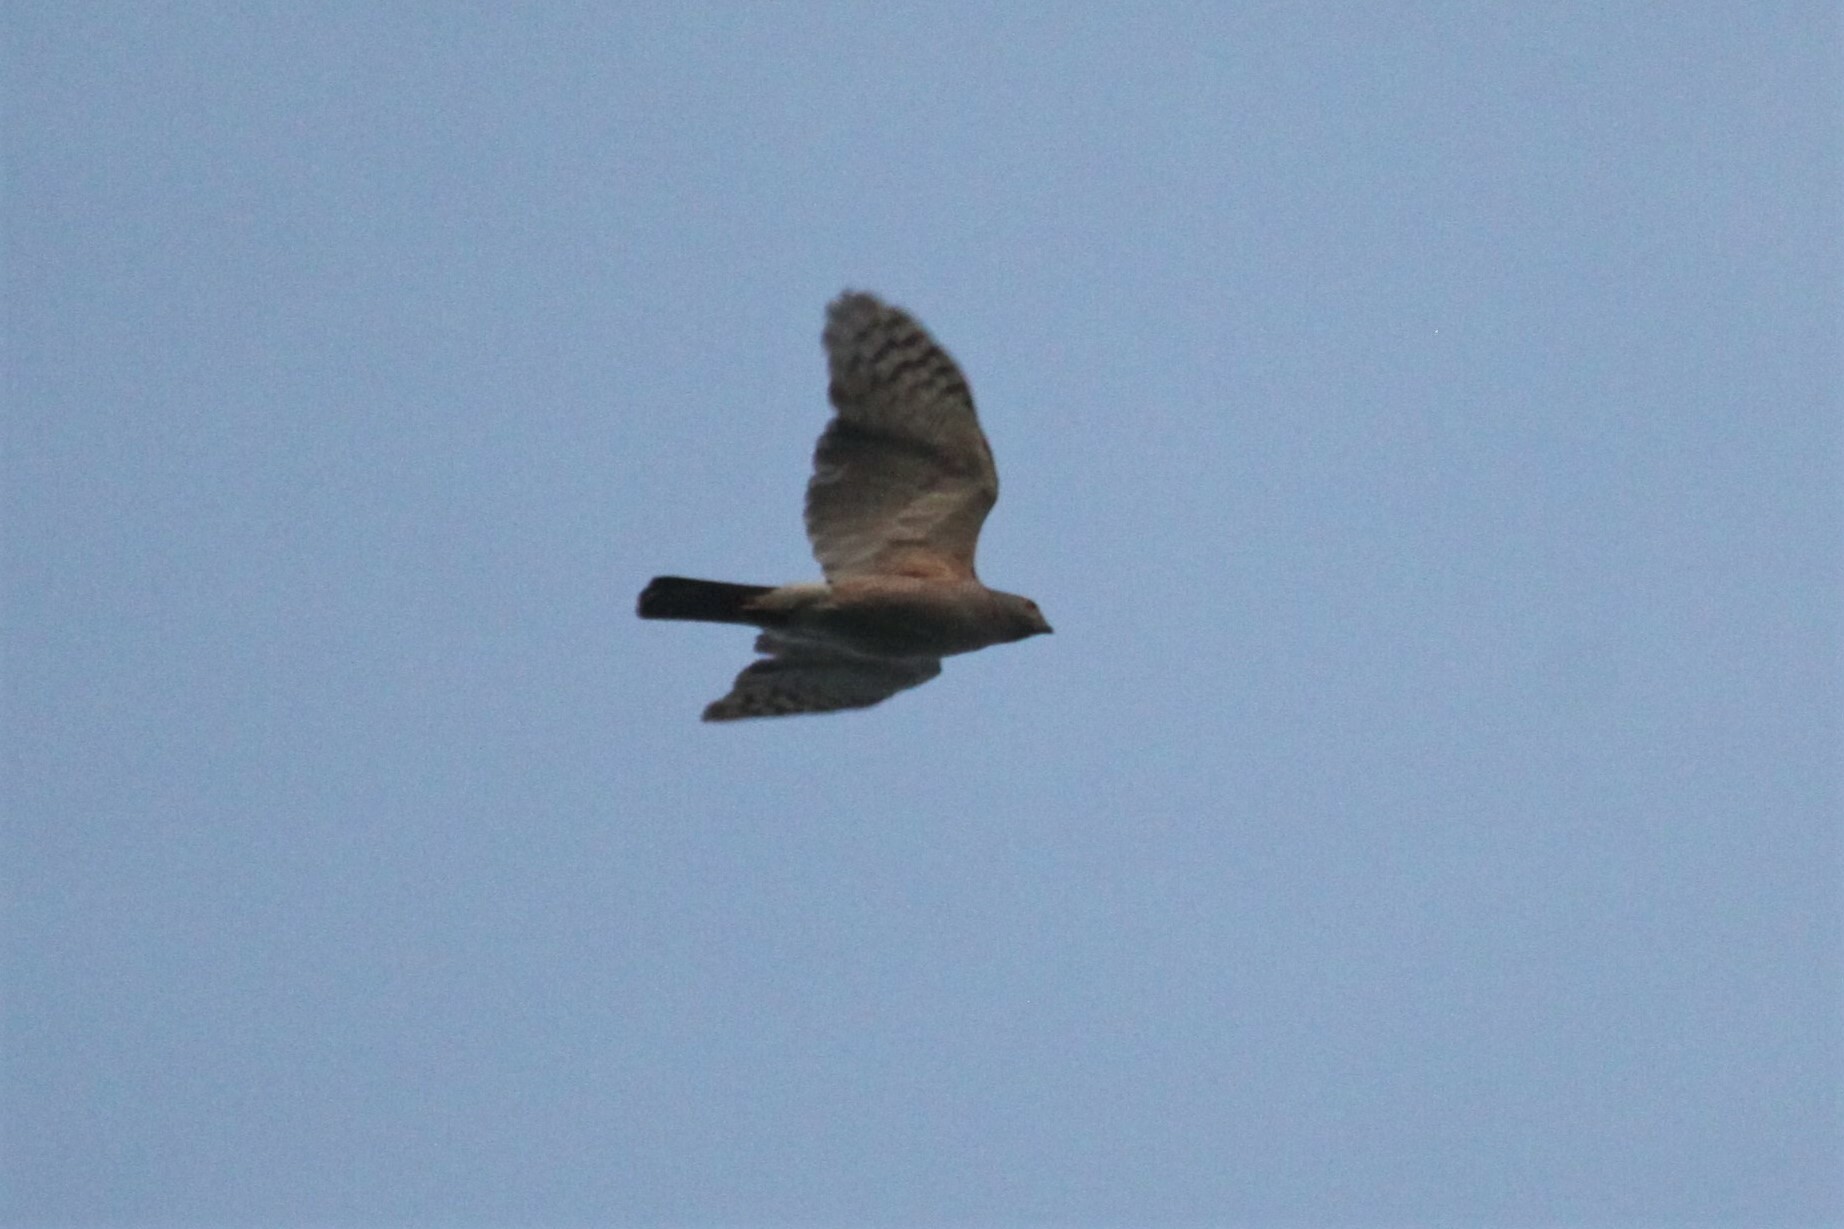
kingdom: Animalia
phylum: Chordata
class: Aves
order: Accipitriformes
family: Accipitridae
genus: Accipiter
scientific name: Accipiter tachiro
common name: African goshawk
